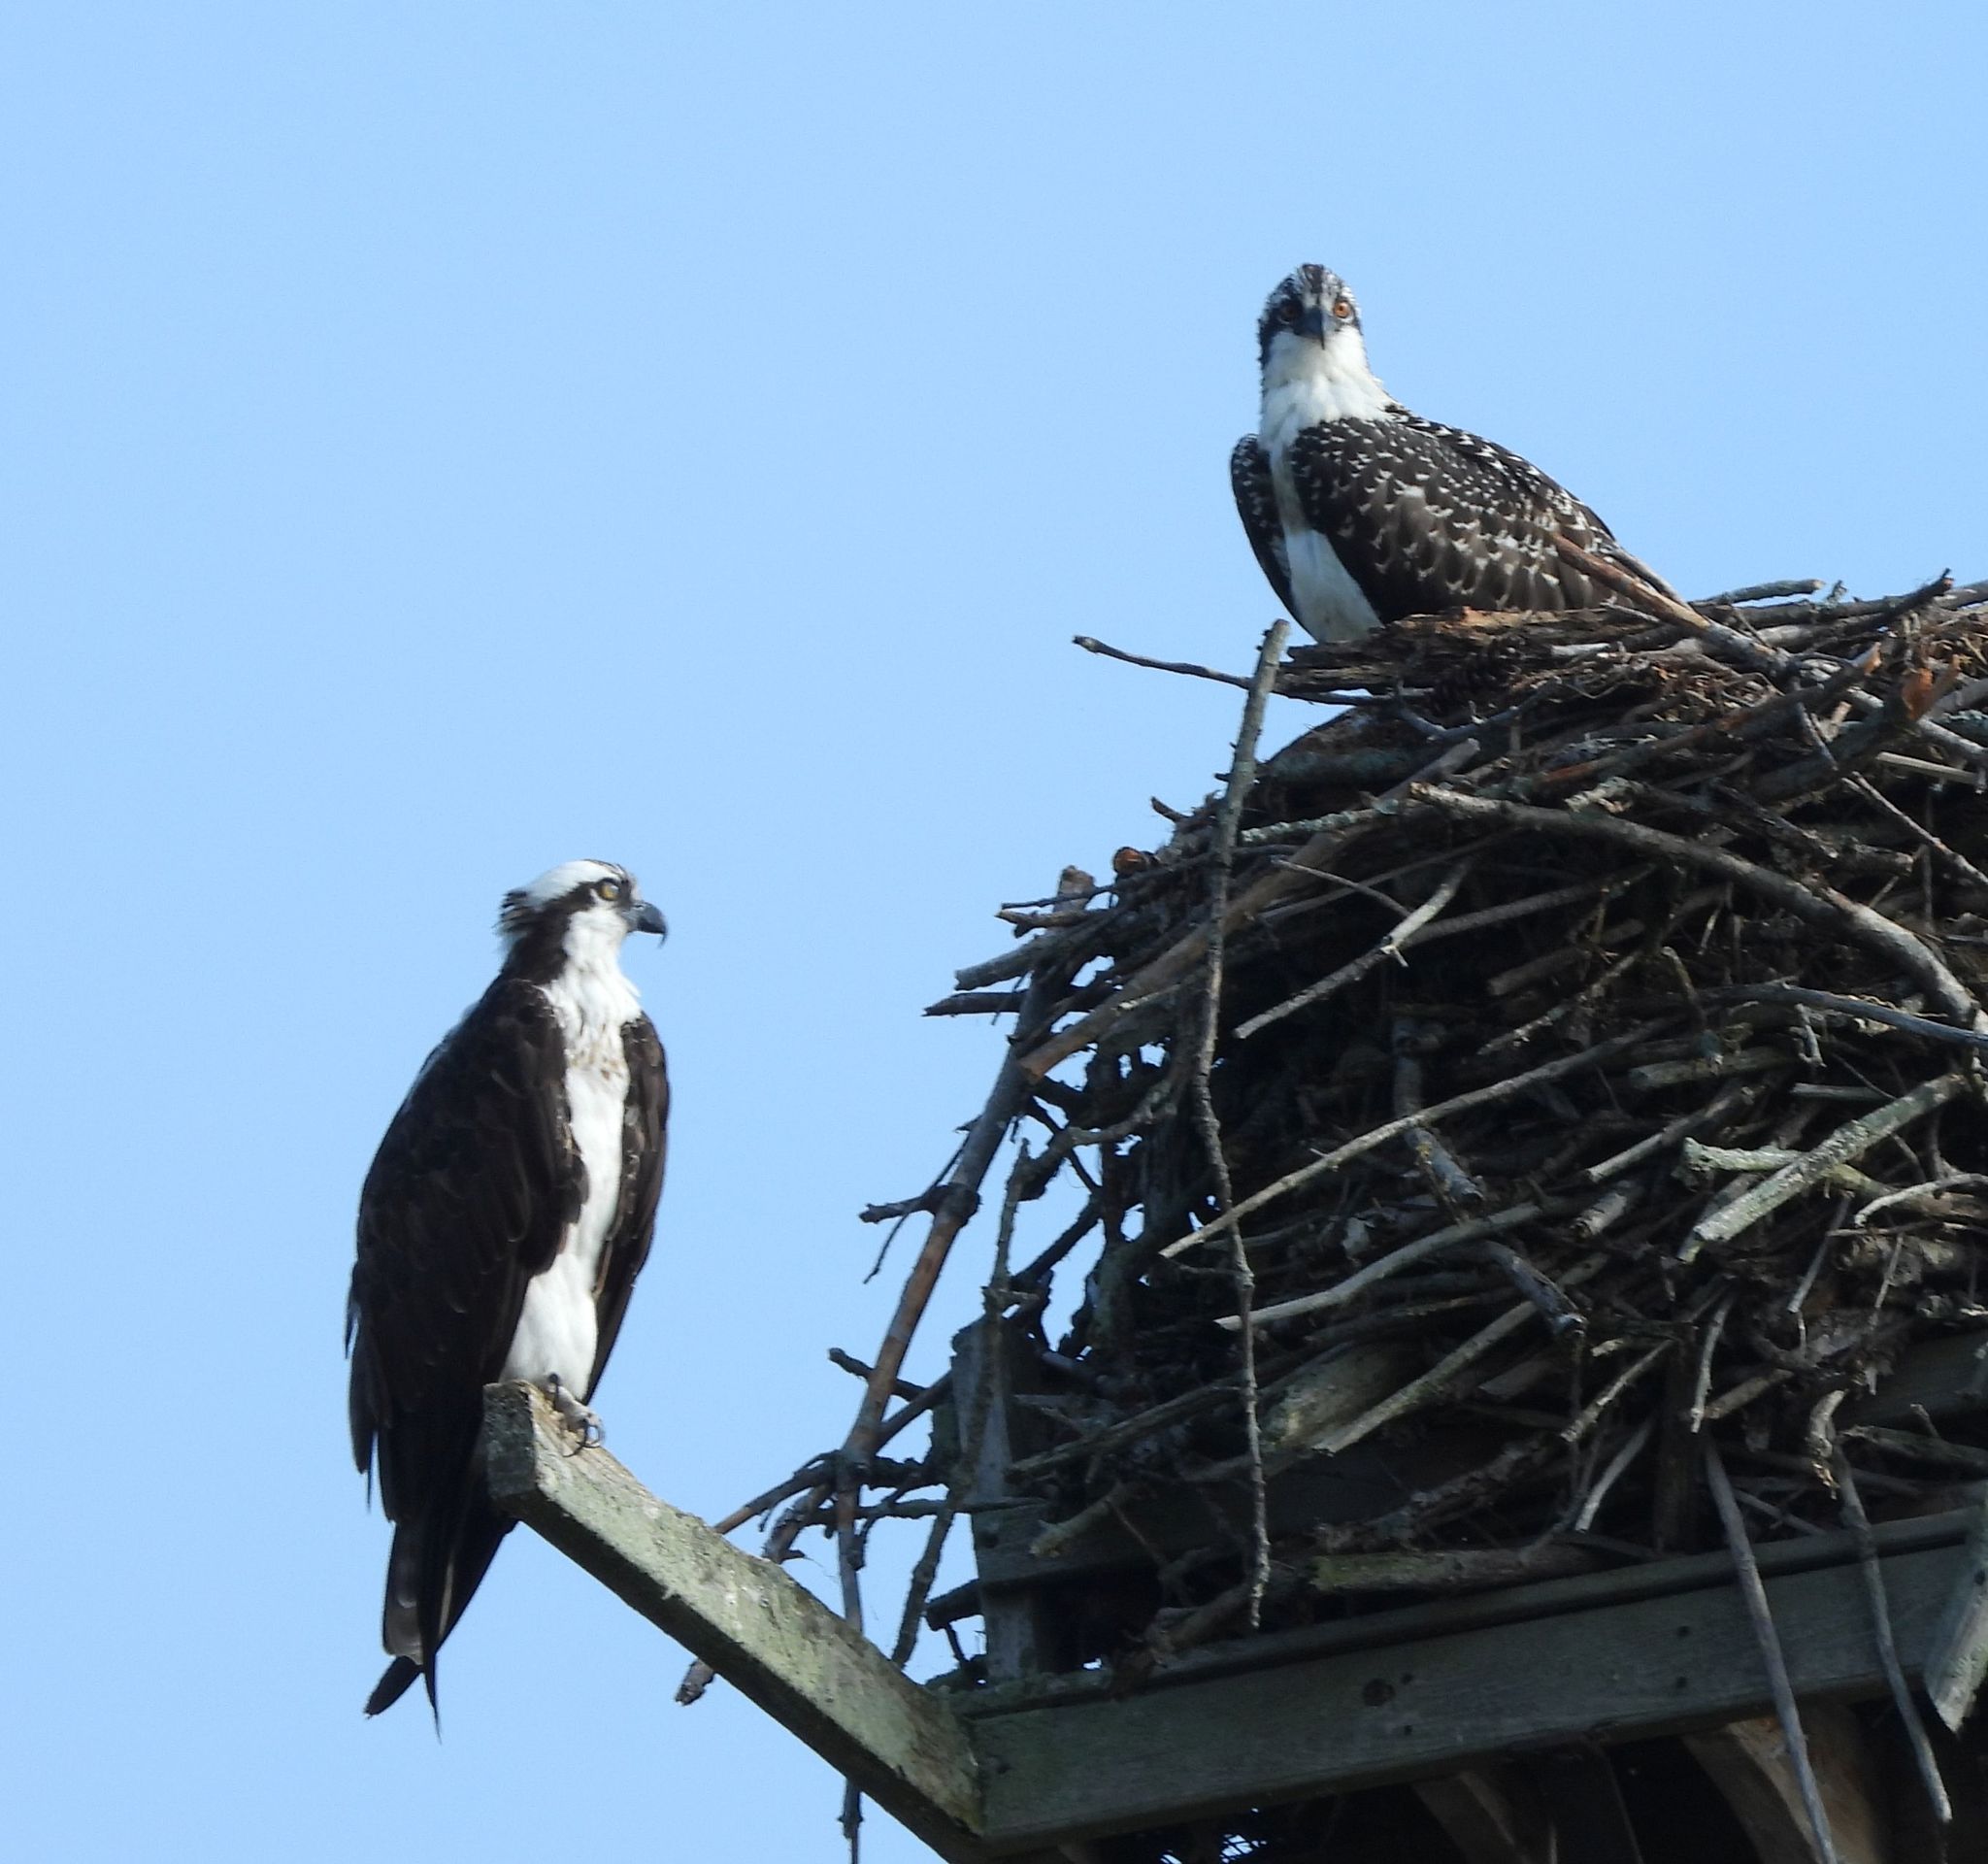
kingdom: Animalia
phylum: Chordata
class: Aves
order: Accipitriformes
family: Pandionidae
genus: Pandion
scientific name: Pandion haliaetus
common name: Osprey
